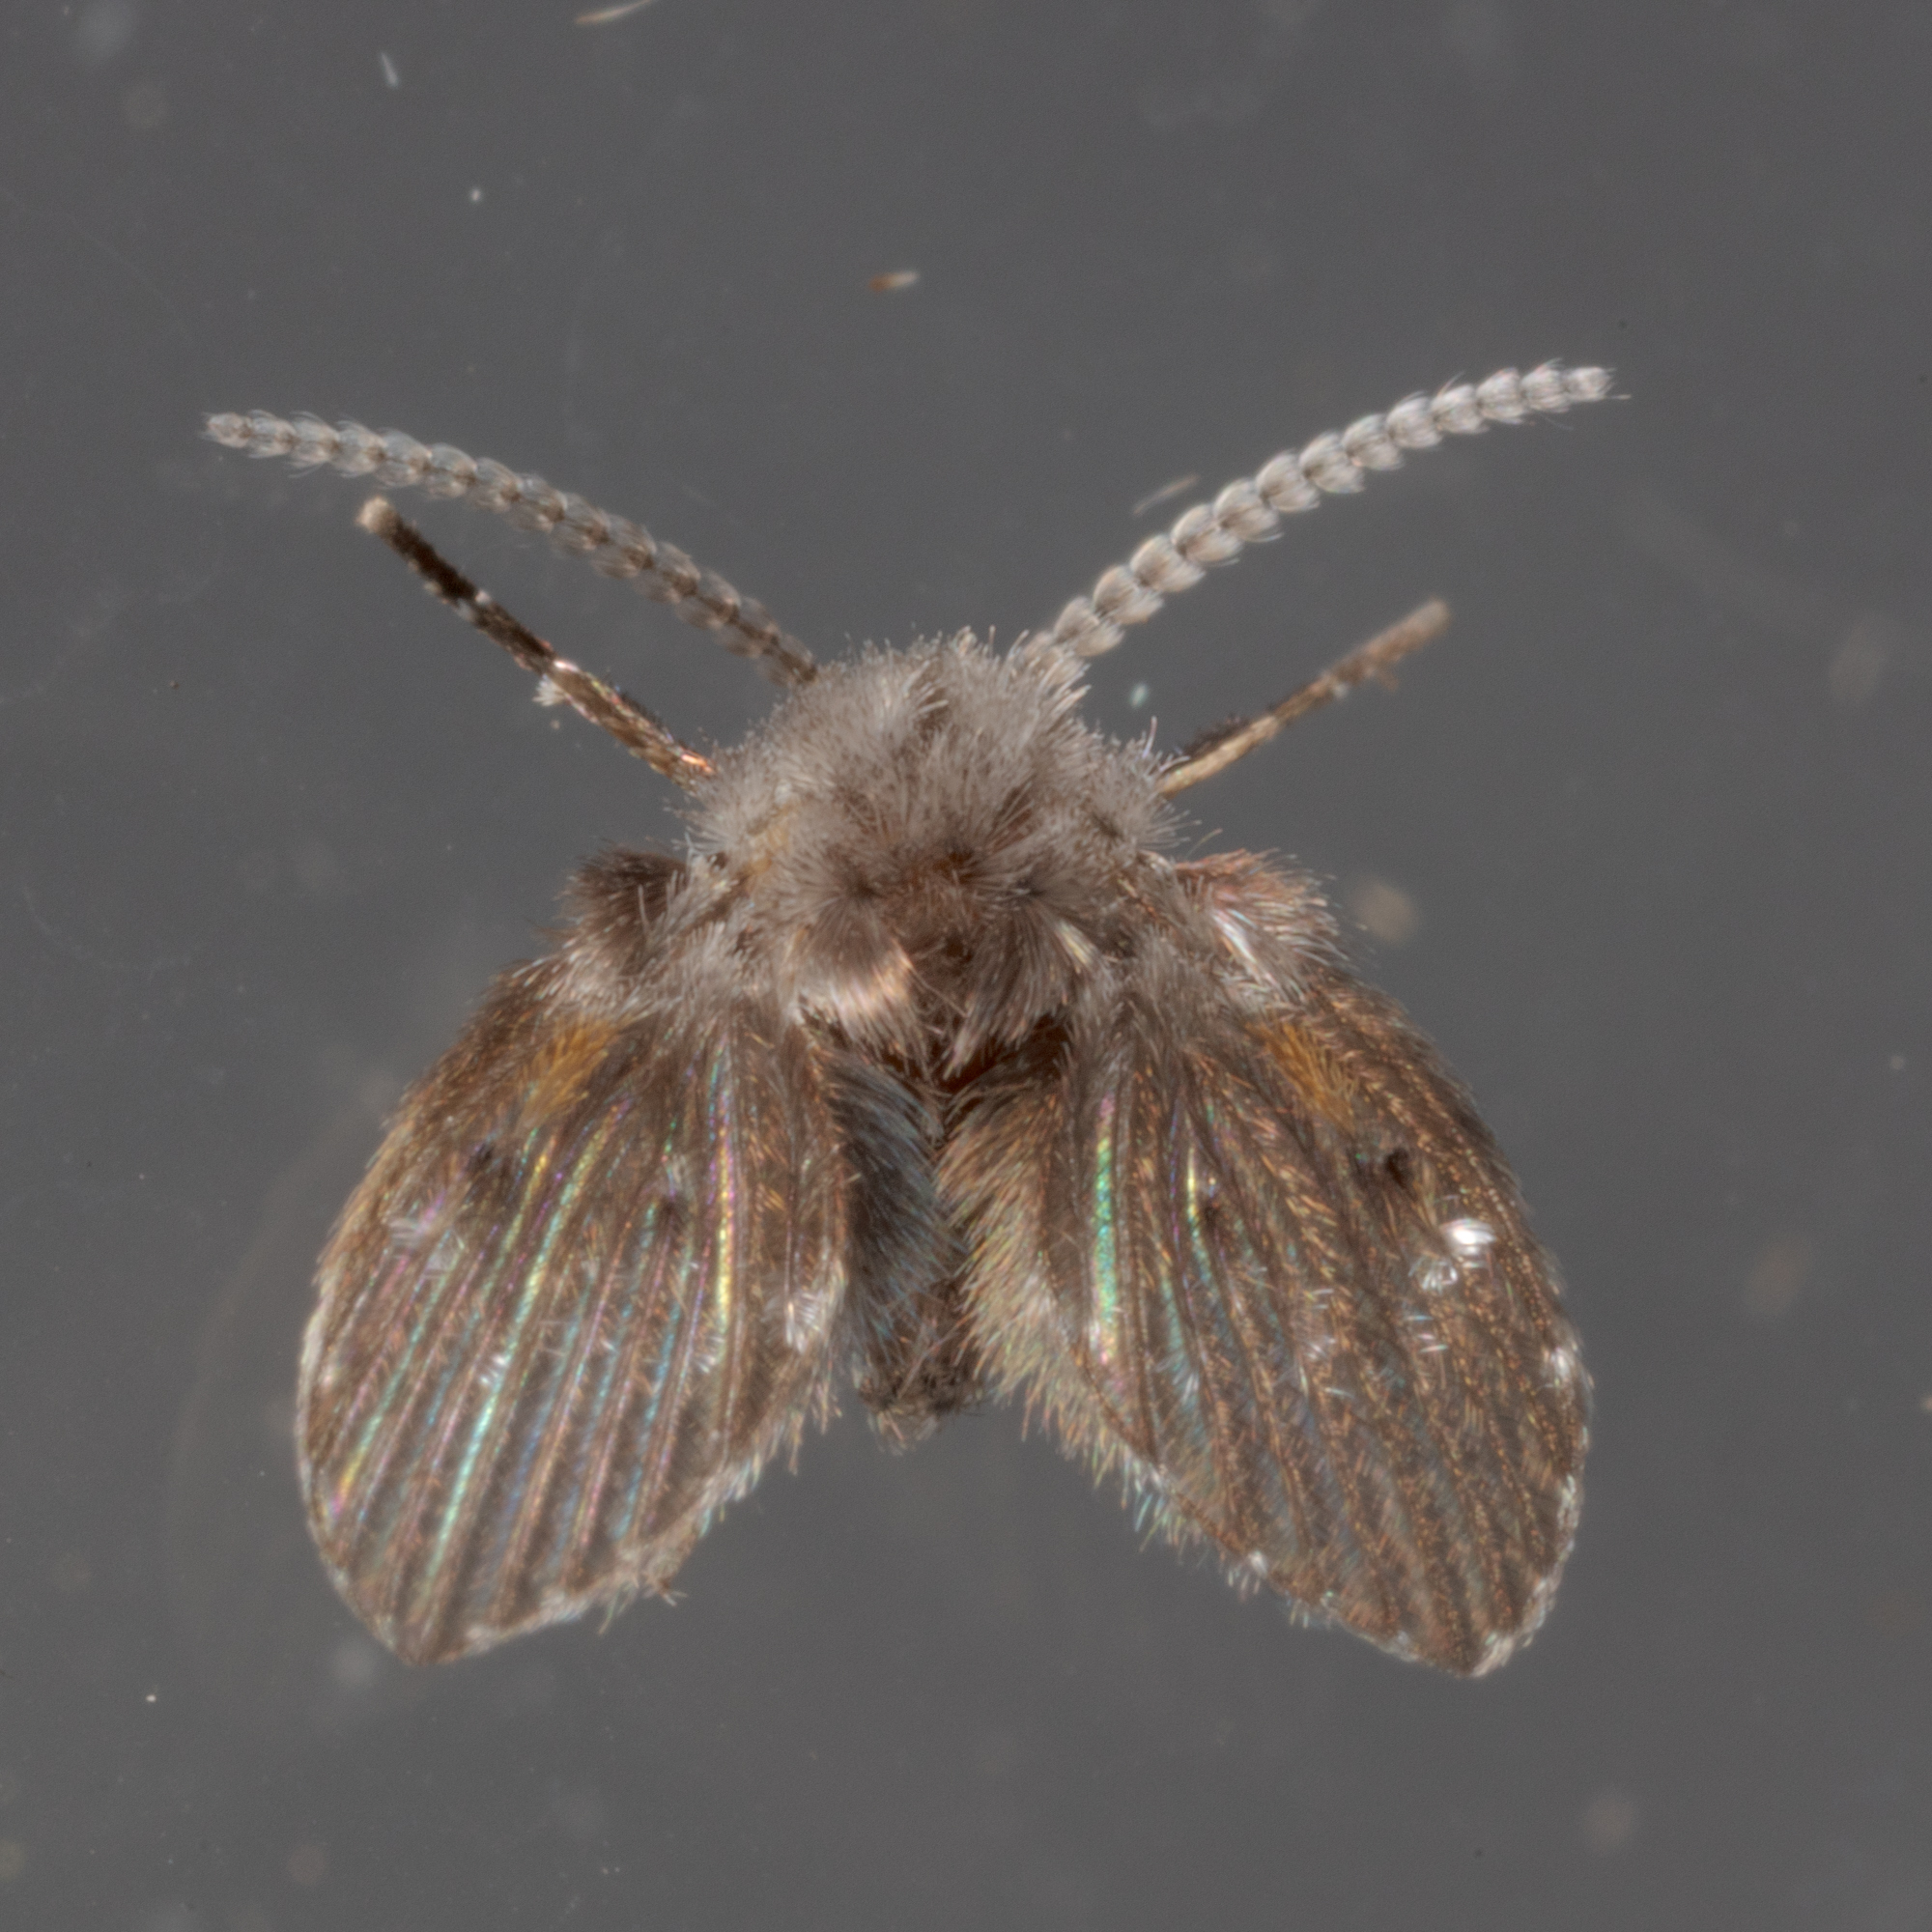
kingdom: Animalia
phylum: Arthropoda
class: Insecta
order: Diptera
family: Psychodidae
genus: Clogmia
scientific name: Clogmia albipunctatus
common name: White-spotted moth fly
